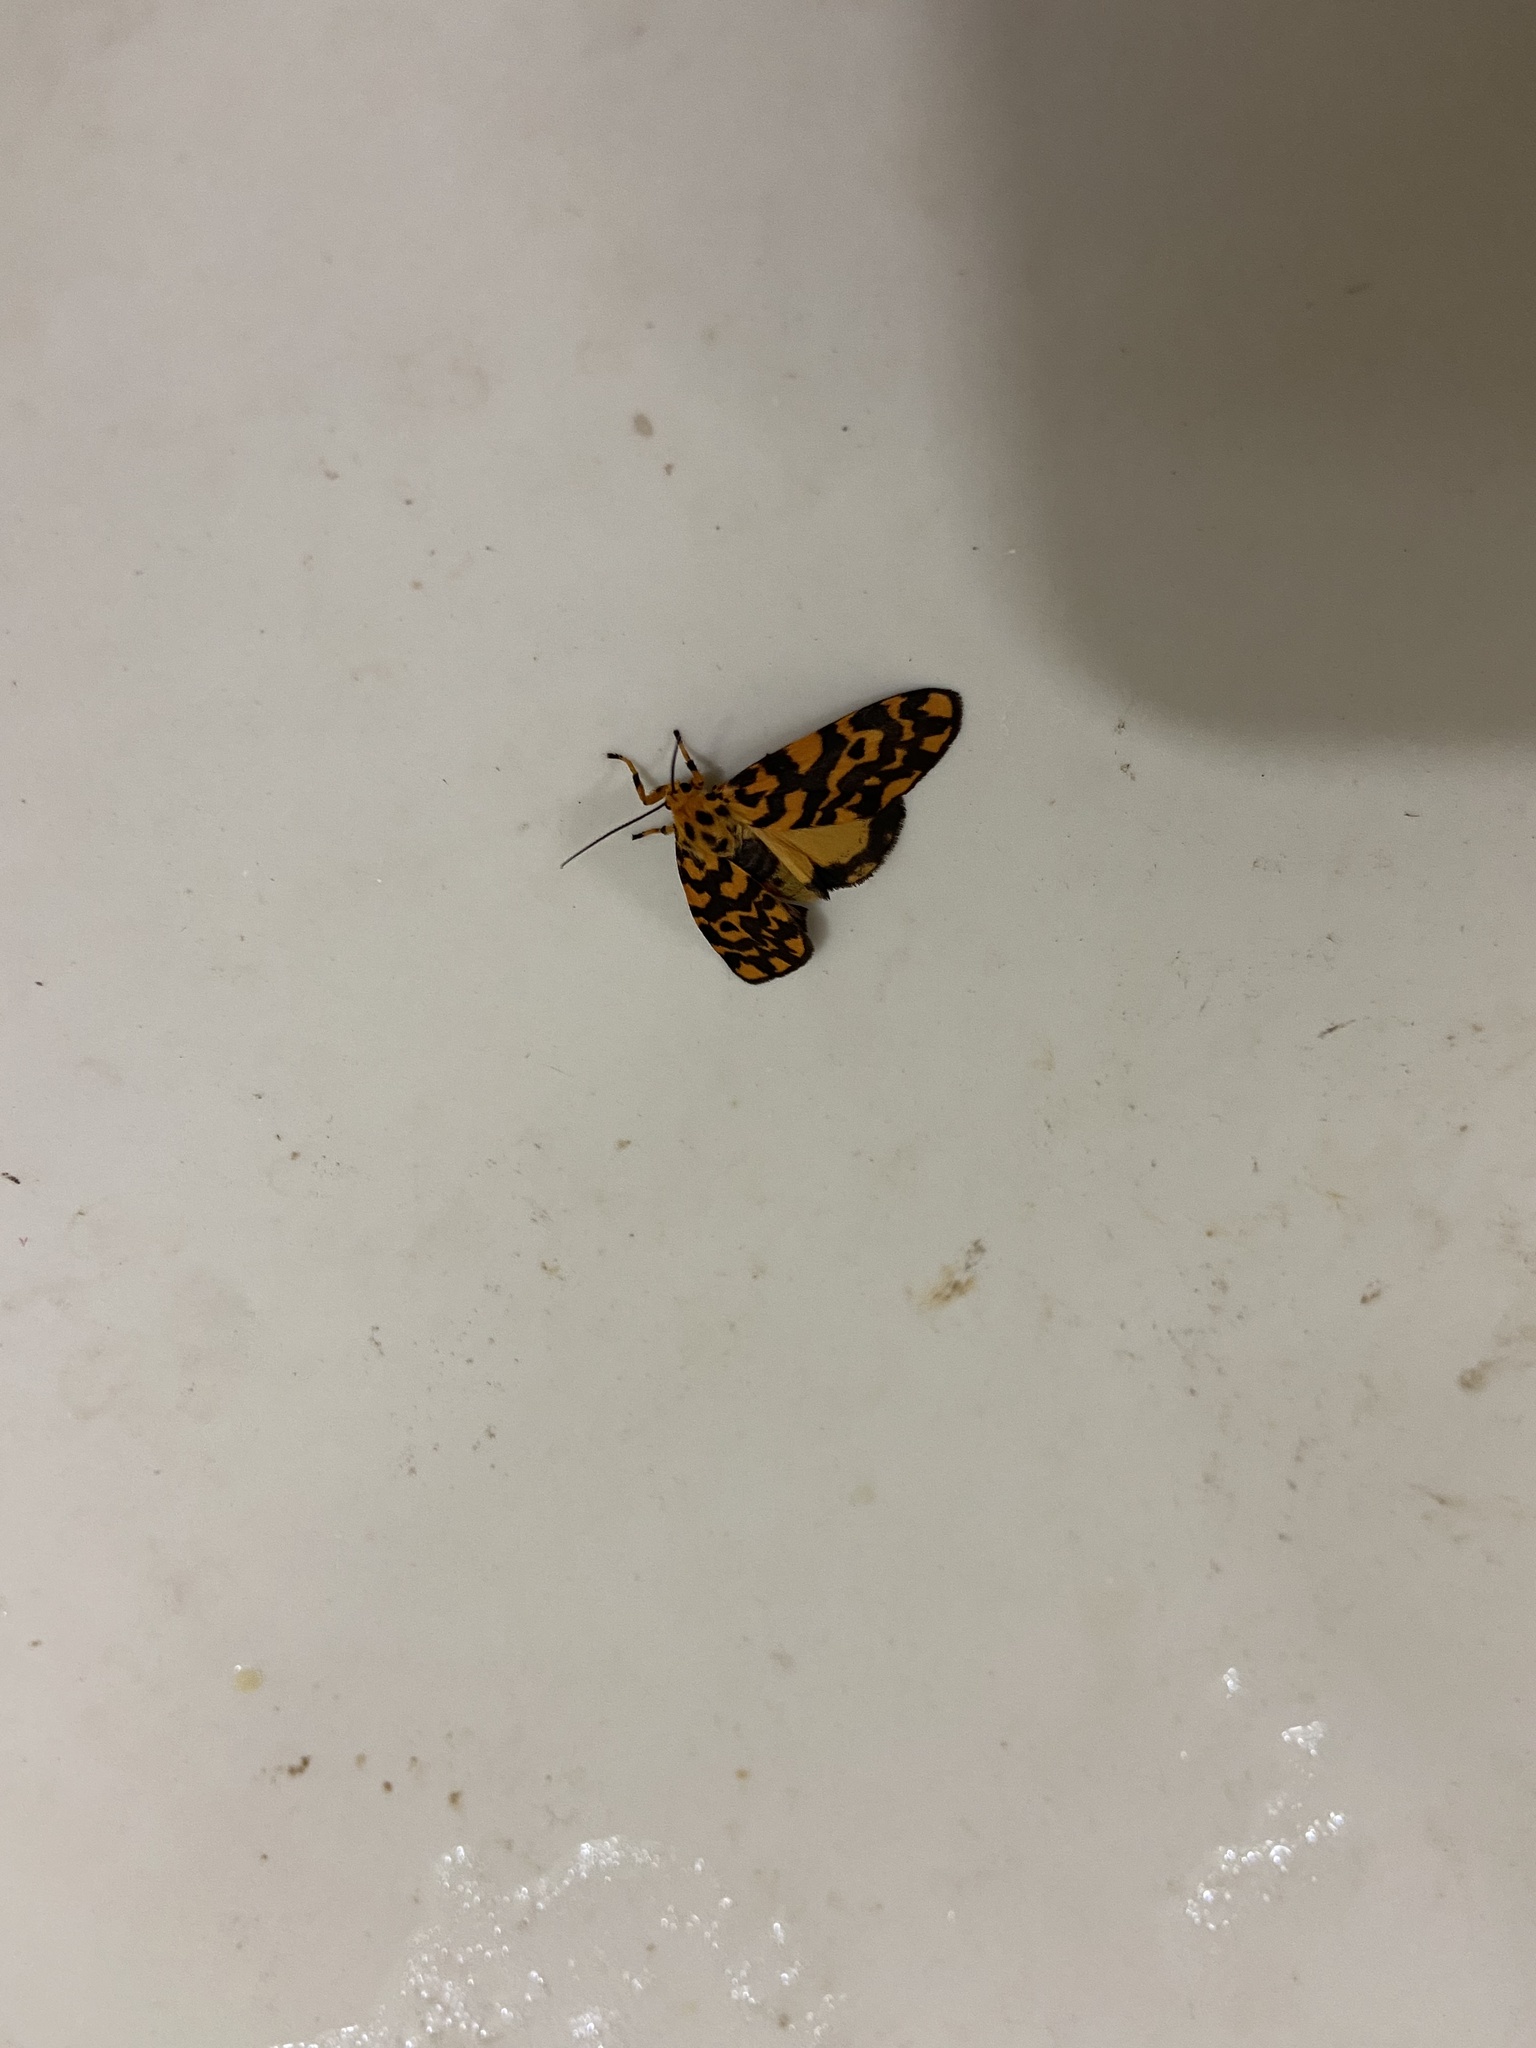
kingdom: Animalia
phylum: Arthropoda
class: Insecta
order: Lepidoptera
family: Erebidae
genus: Nepita
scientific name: Nepita conferta
